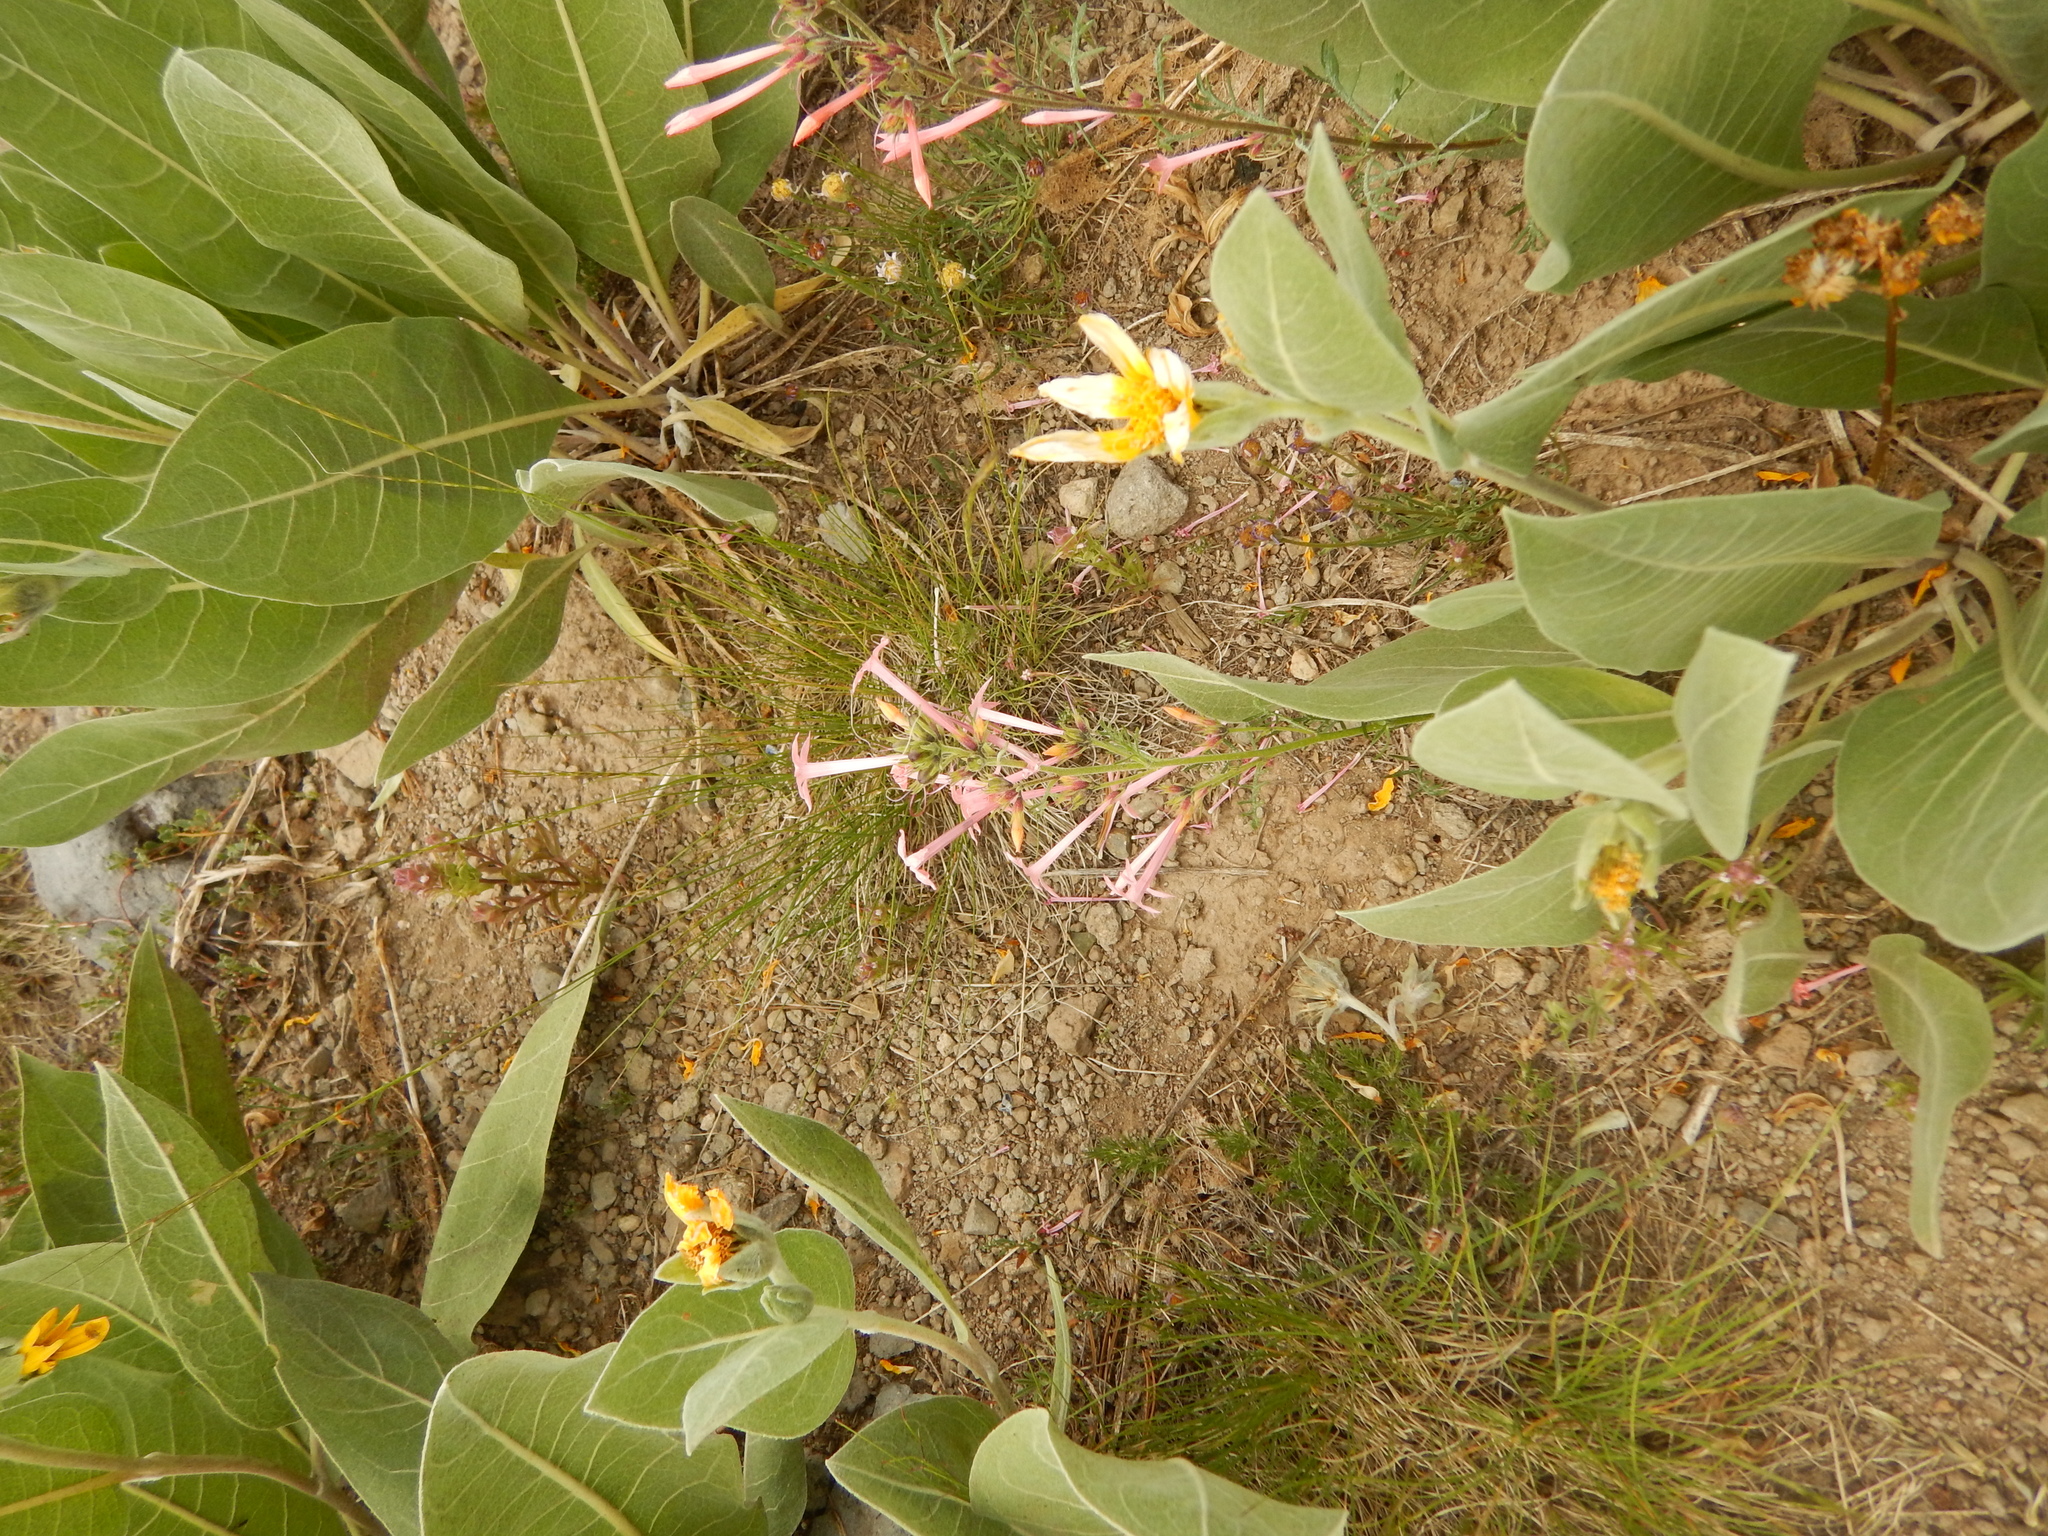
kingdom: Plantae
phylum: Tracheophyta
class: Magnoliopsida
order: Asterales
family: Asteraceae
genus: Wyethia
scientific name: Wyethia mollis
